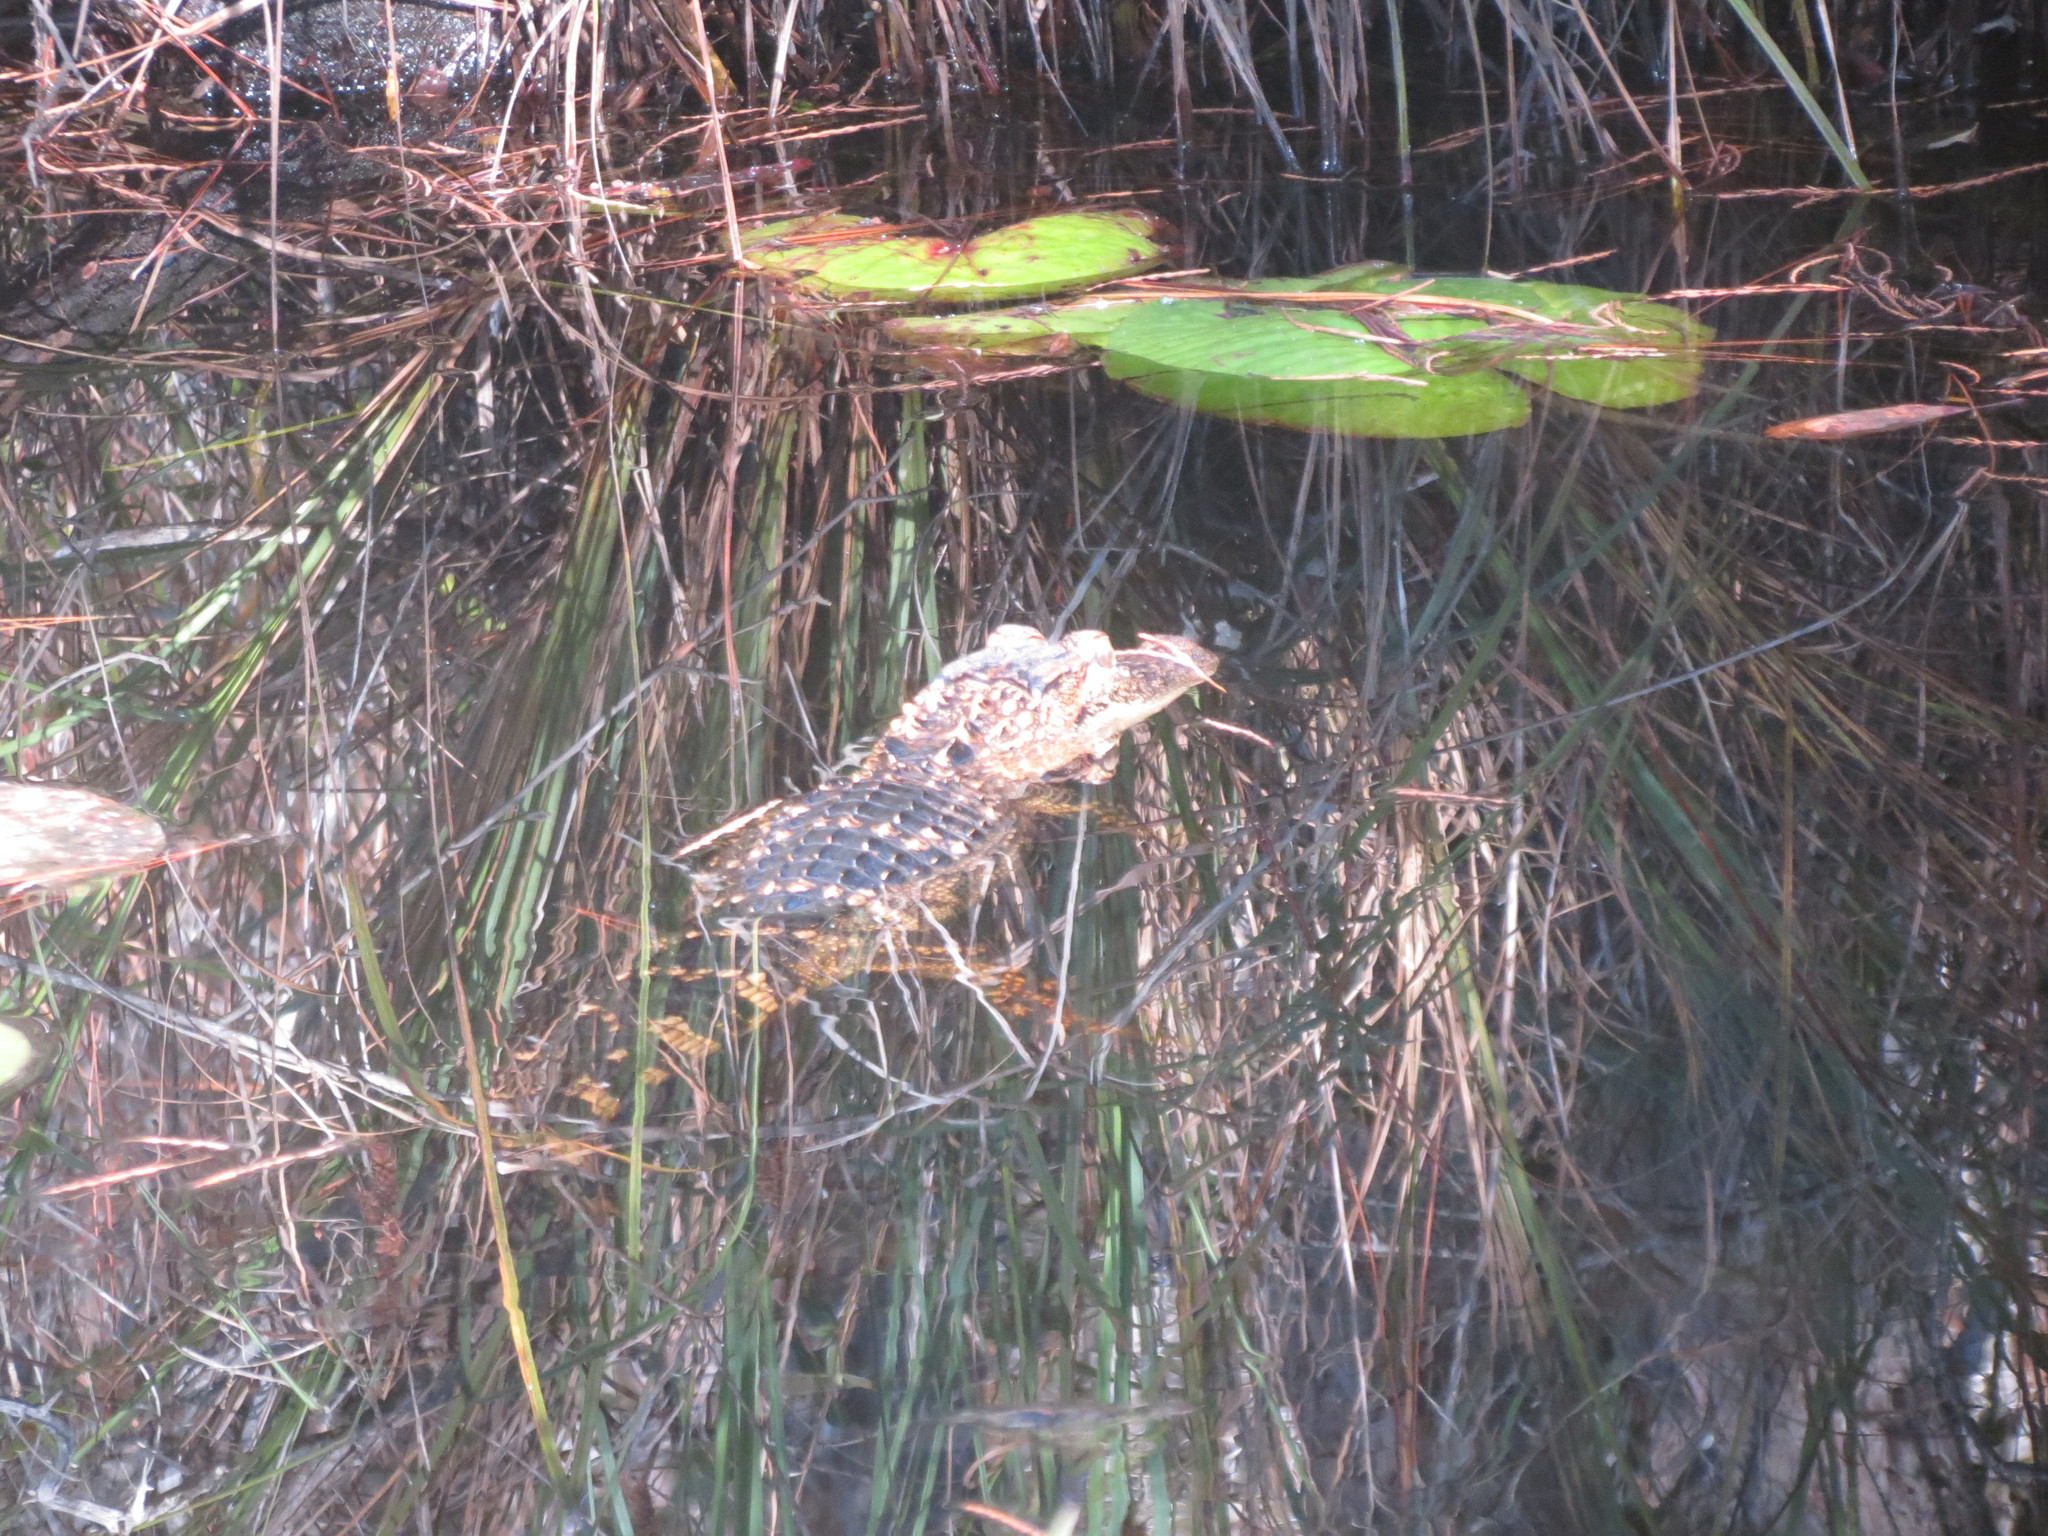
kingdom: Animalia
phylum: Chordata
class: Crocodylia
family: Alligatoridae
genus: Alligator
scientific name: Alligator mississippiensis
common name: American alligator
